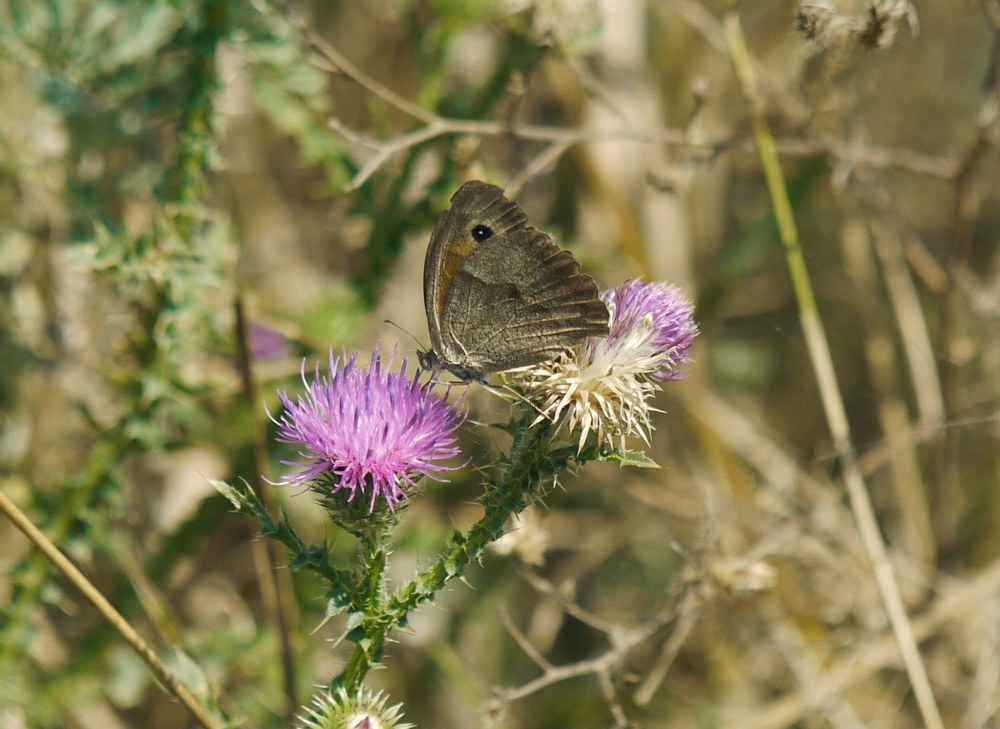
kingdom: Animalia
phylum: Arthropoda
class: Insecta
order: Lepidoptera
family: Nymphalidae
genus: Maniola
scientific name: Maniola jurtina
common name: Meadow brown
